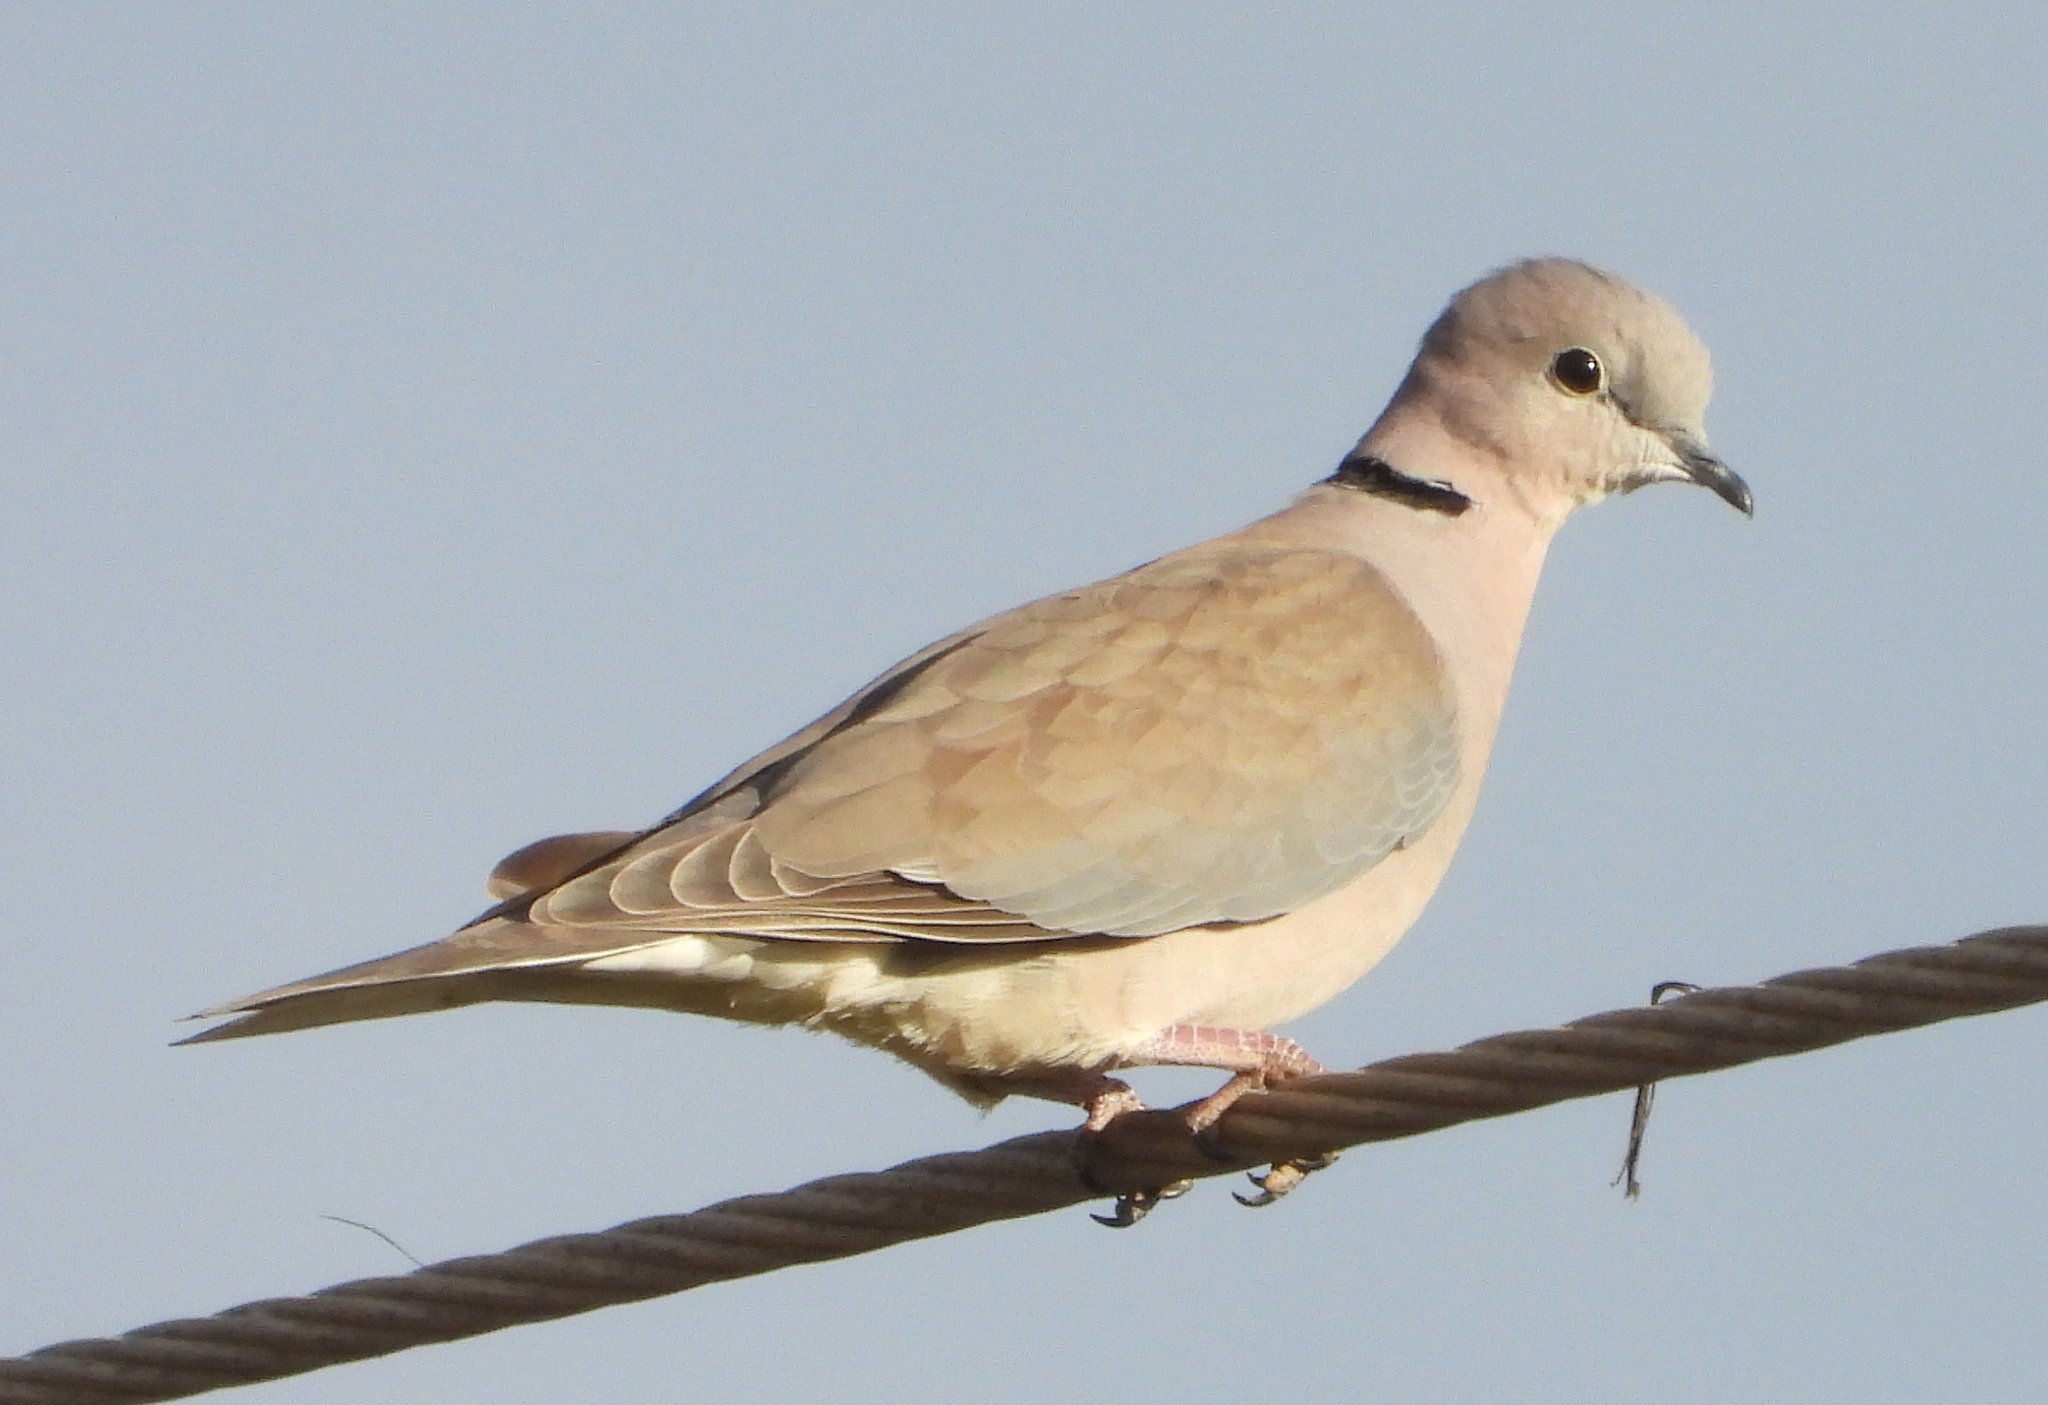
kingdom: Animalia
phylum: Chordata
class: Aves
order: Columbiformes
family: Columbidae
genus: Streptopelia
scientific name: Streptopelia capicola
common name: Ring-necked dove
